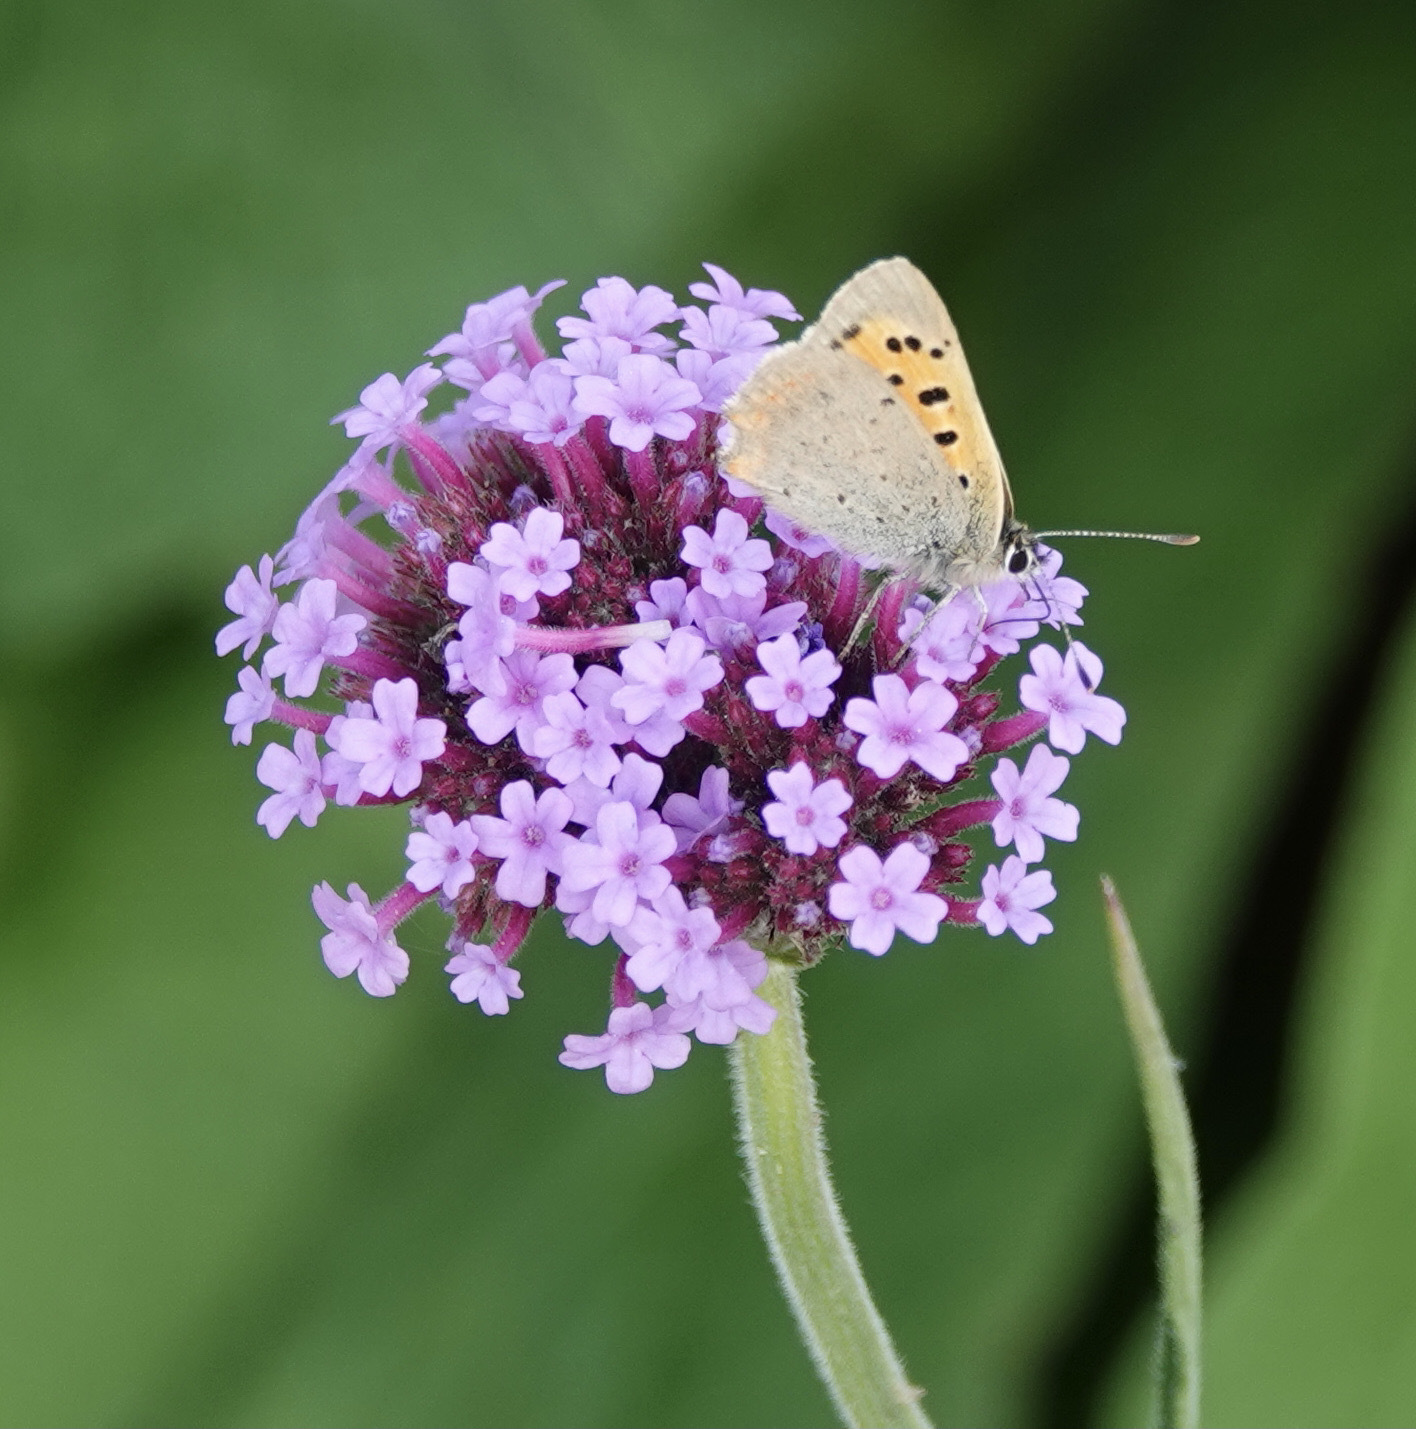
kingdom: Animalia
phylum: Arthropoda
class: Insecta
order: Lepidoptera
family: Lycaenidae
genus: Lycaena
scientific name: Lycaena phlaeas
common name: Small copper
